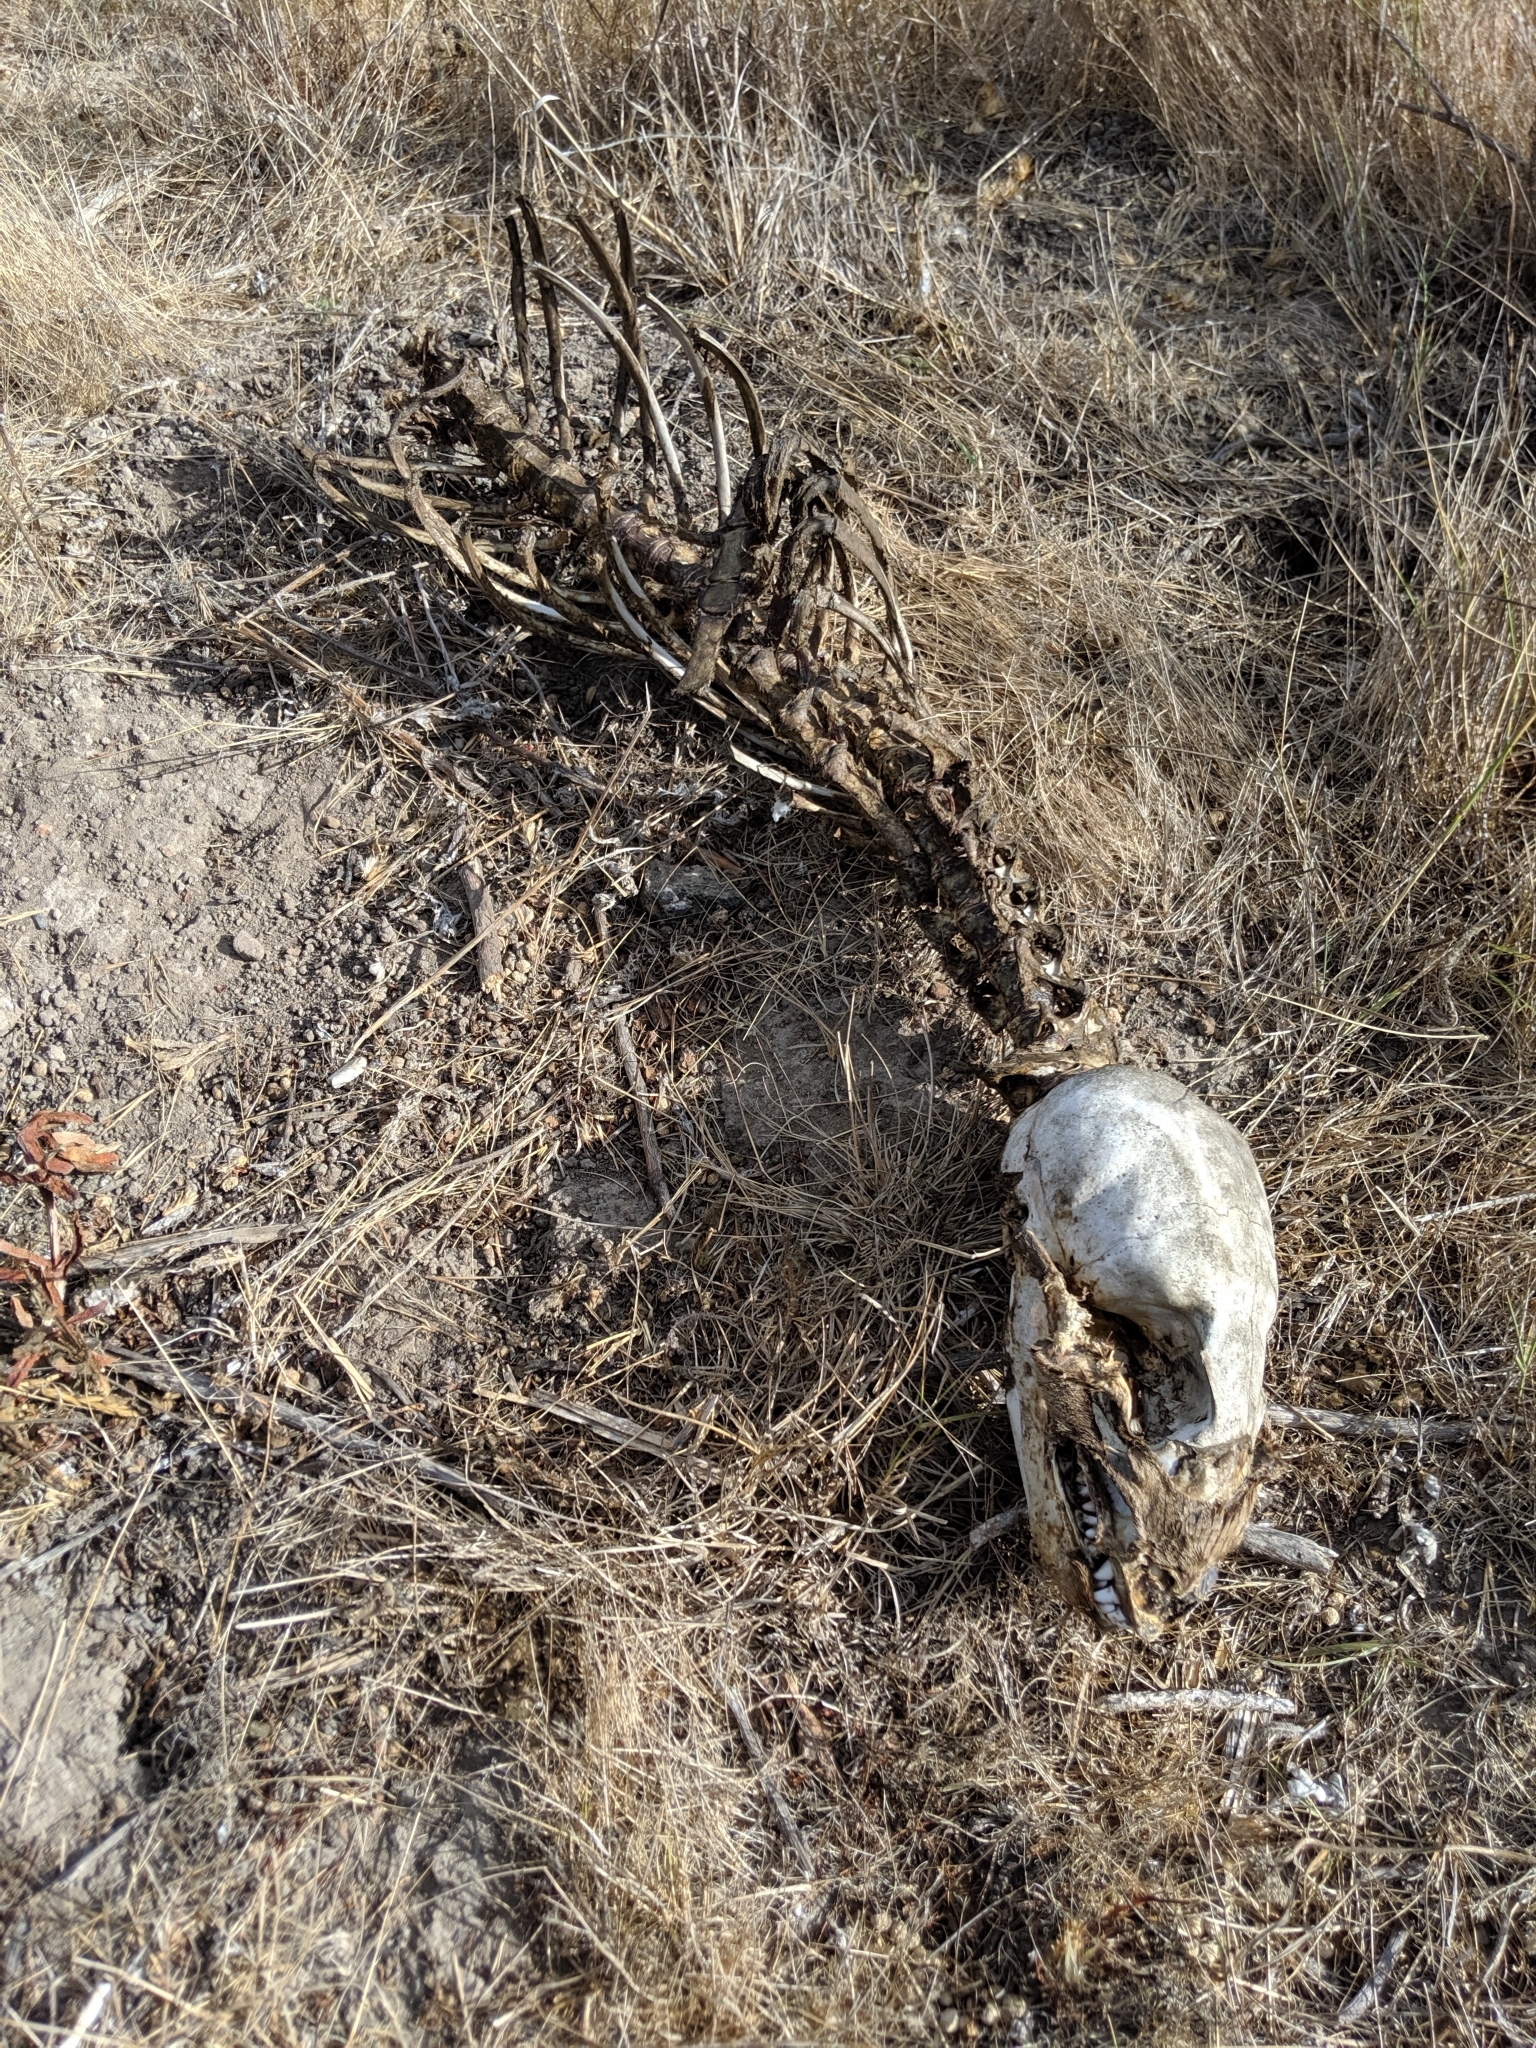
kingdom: Animalia
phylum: Chordata
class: Mammalia
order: Carnivora
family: Otariidae
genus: Zalophus
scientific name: Zalophus californianus
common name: California sea lion
